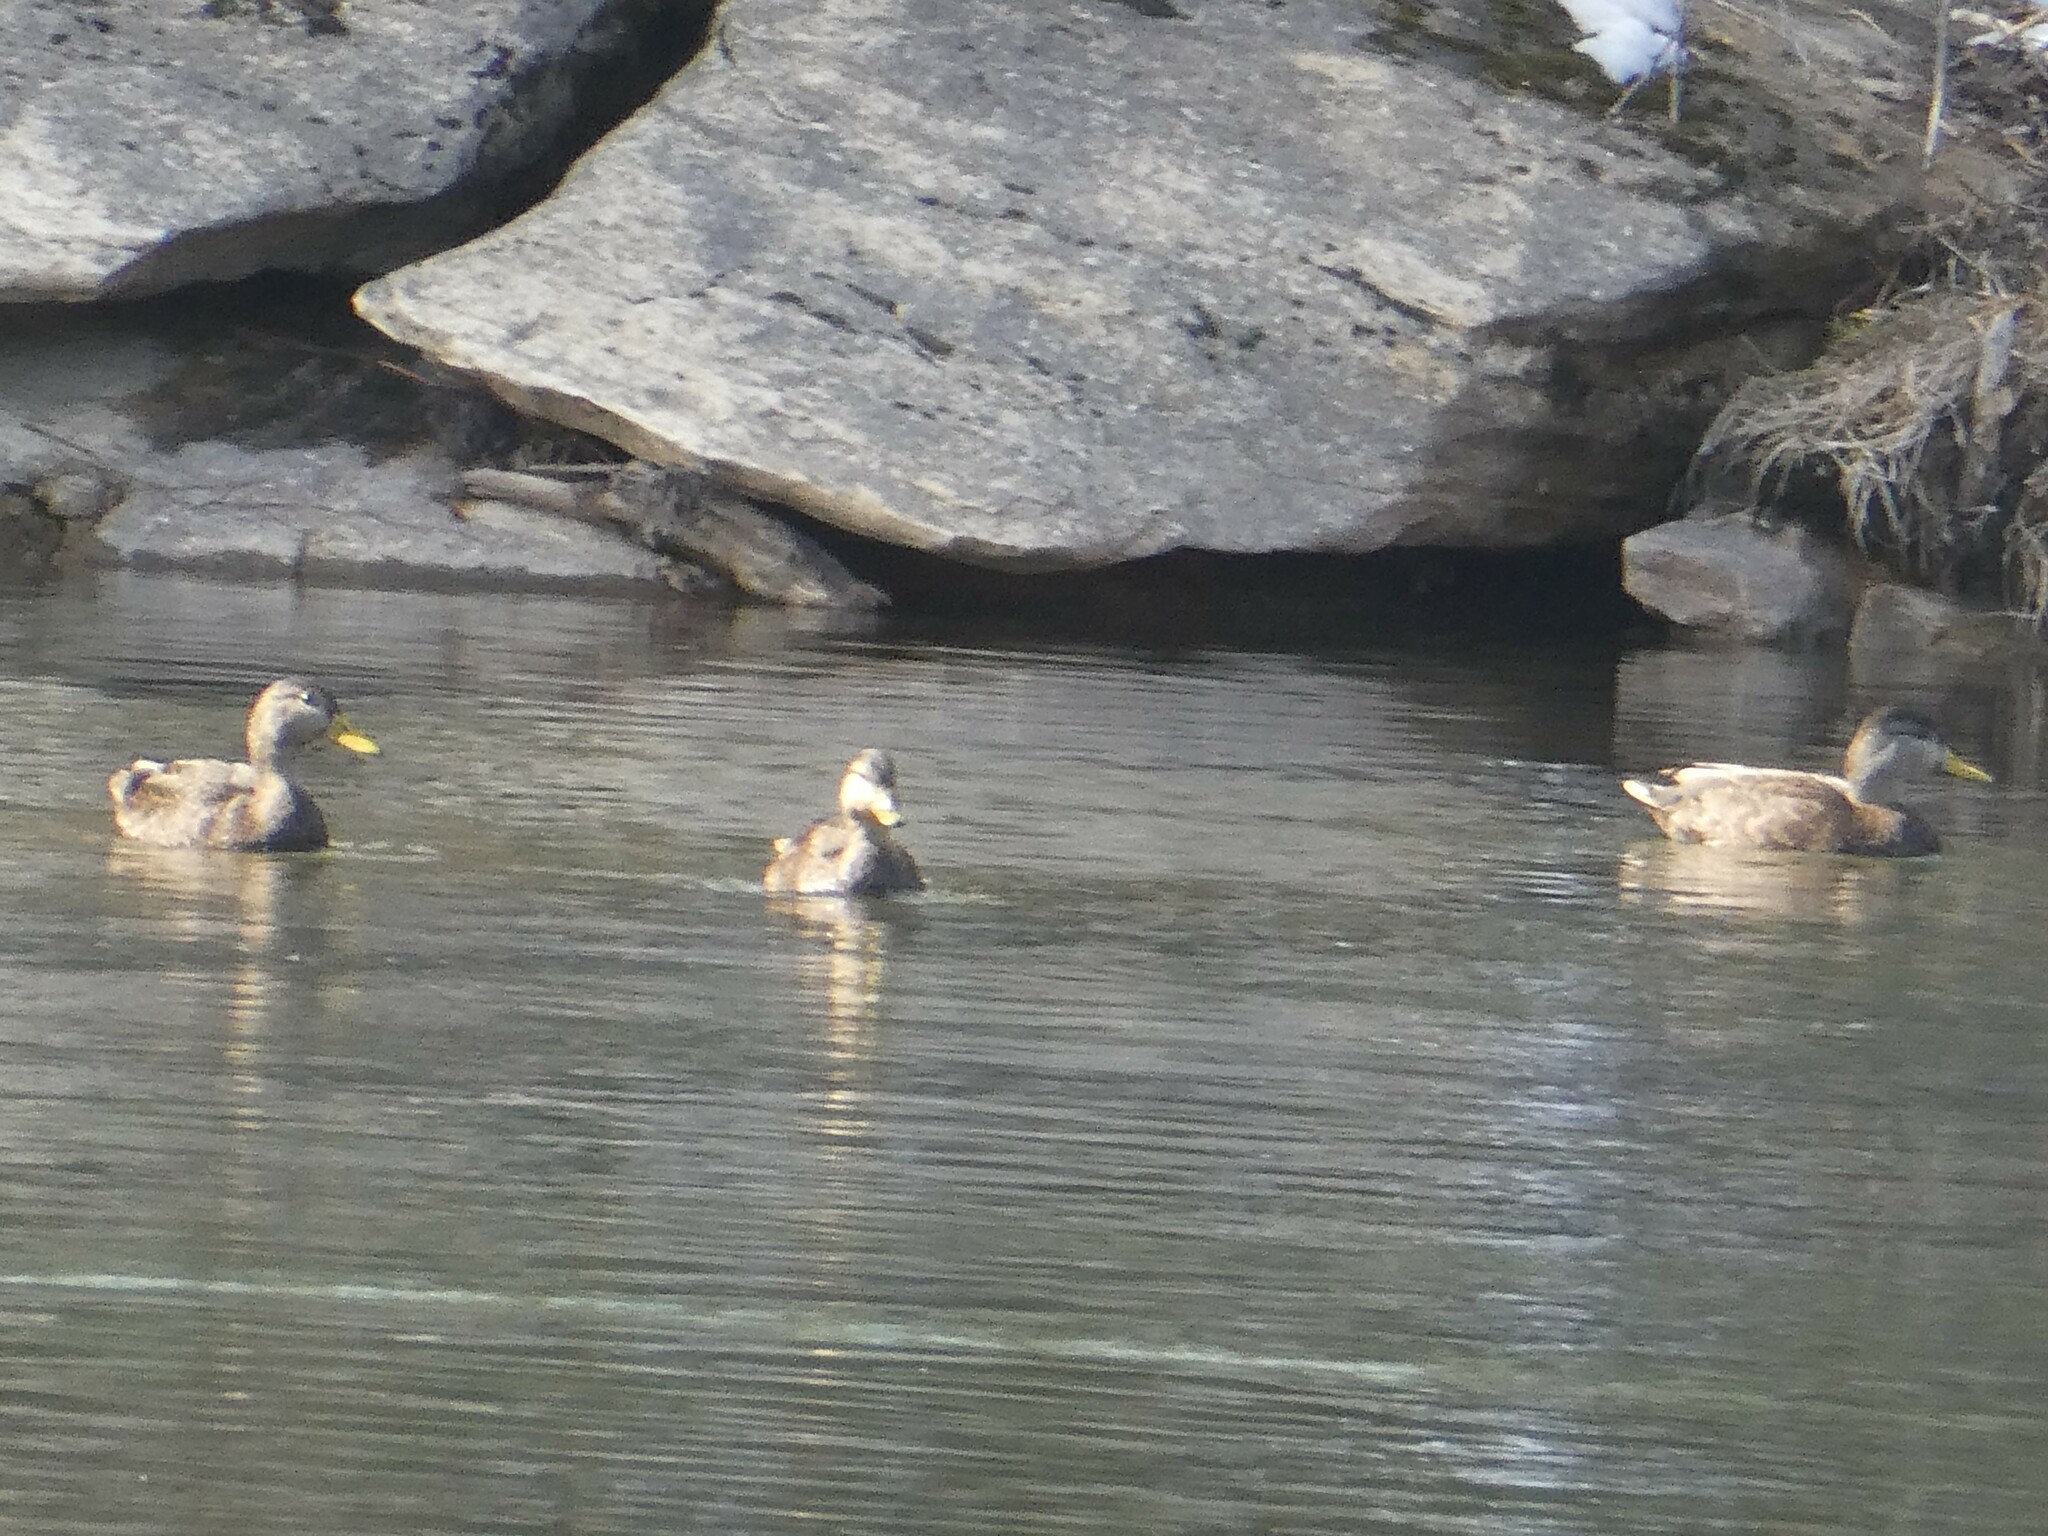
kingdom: Animalia
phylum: Chordata
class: Aves
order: Anseriformes
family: Anatidae
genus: Anas
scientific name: Anas rubripes
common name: American black duck
